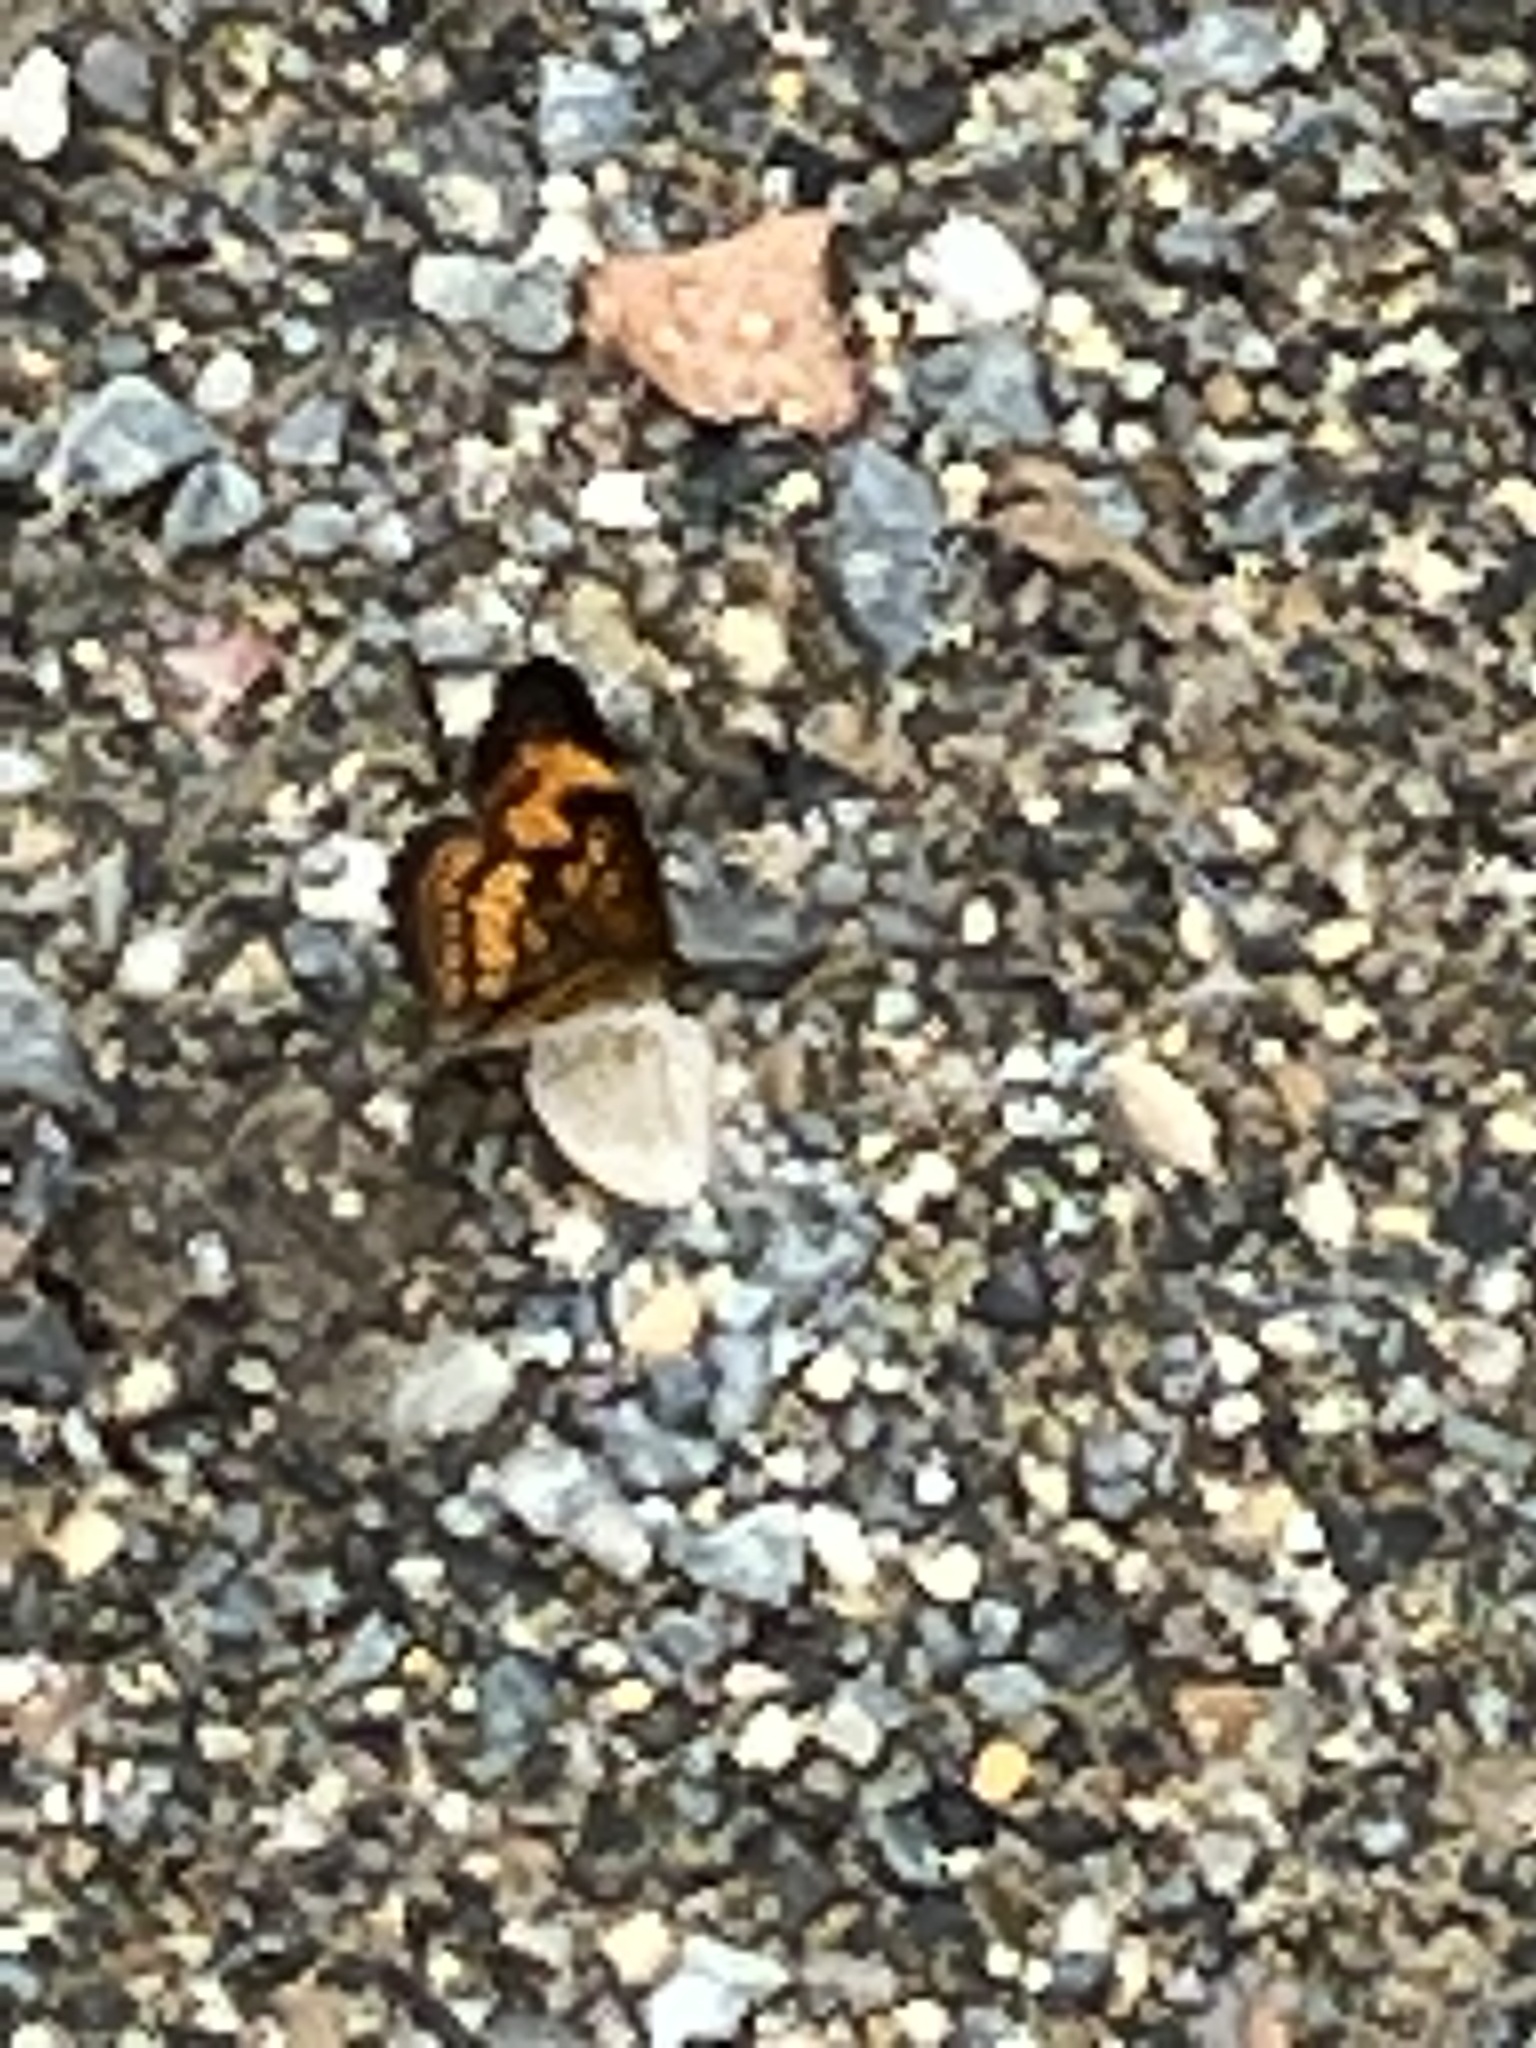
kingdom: Animalia
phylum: Arthropoda
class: Insecta
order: Lepidoptera
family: Nymphalidae
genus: Chlosyne
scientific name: Chlosyne nycteis
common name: Silvery checkerspot
